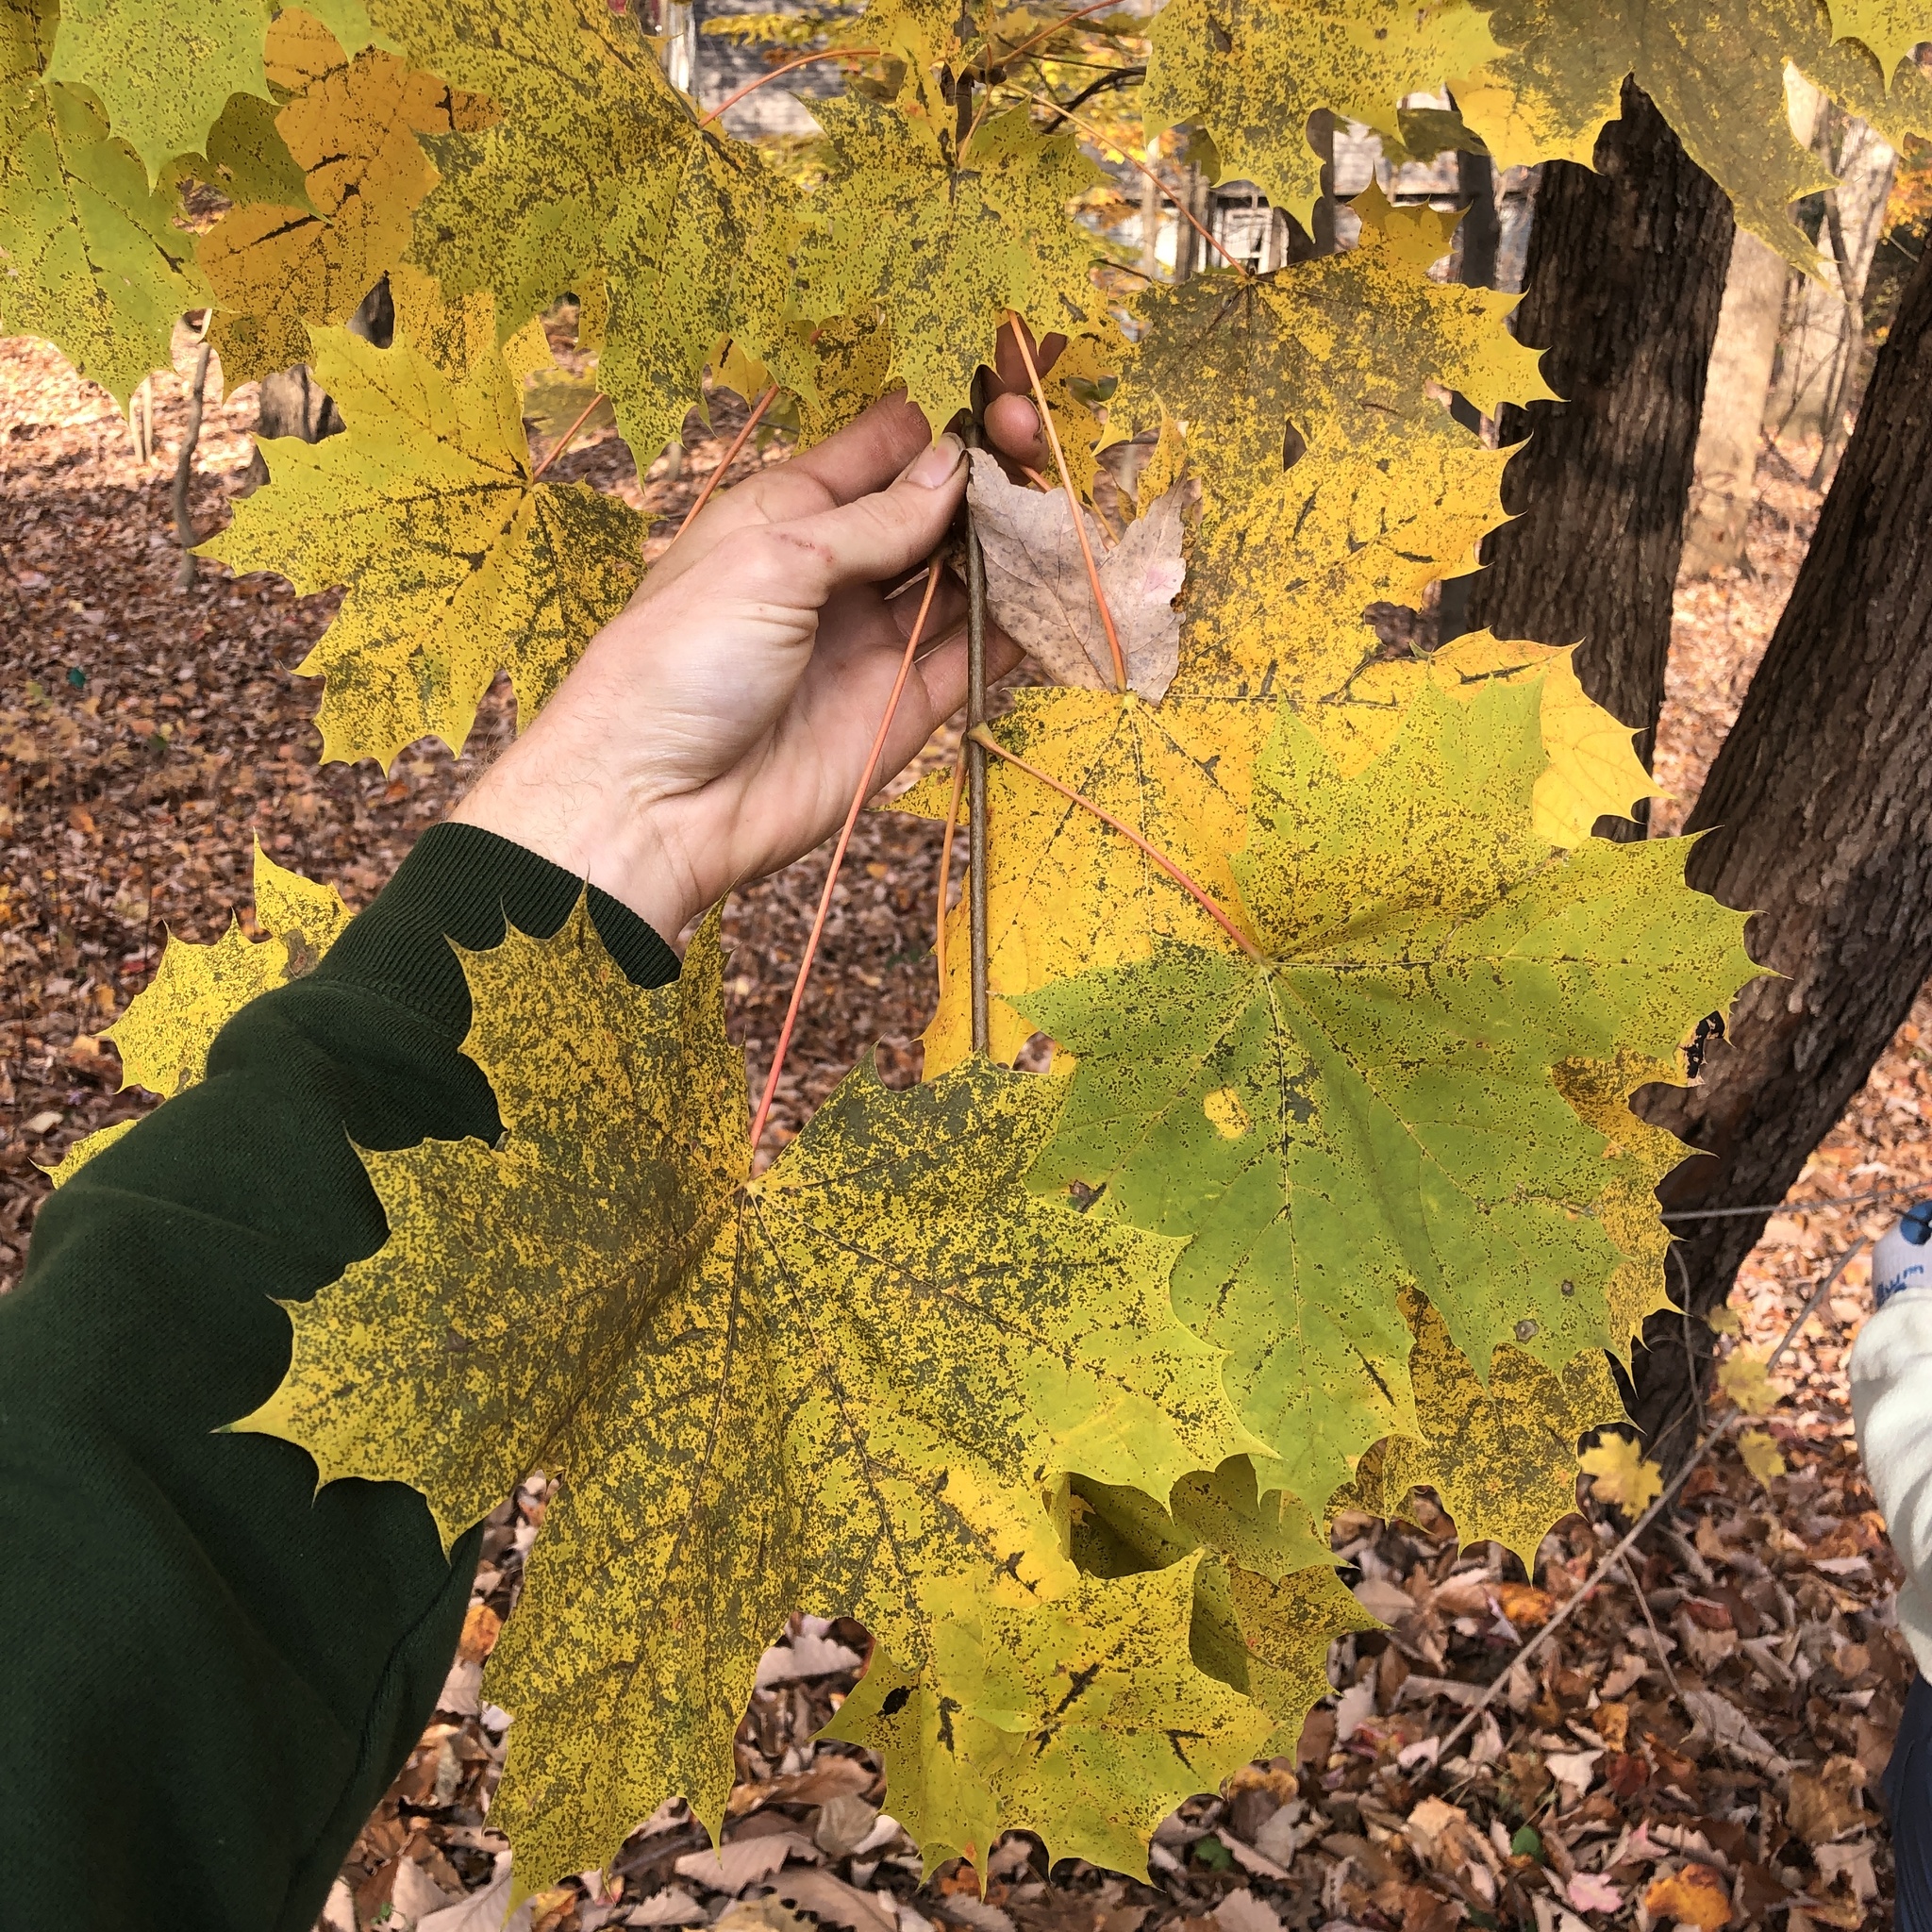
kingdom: Plantae
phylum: Tracheophyta
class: Magnoliopsida
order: Sapindales
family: Sapindaceae
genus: Acer
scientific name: Acer platanoides
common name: Norway maple
